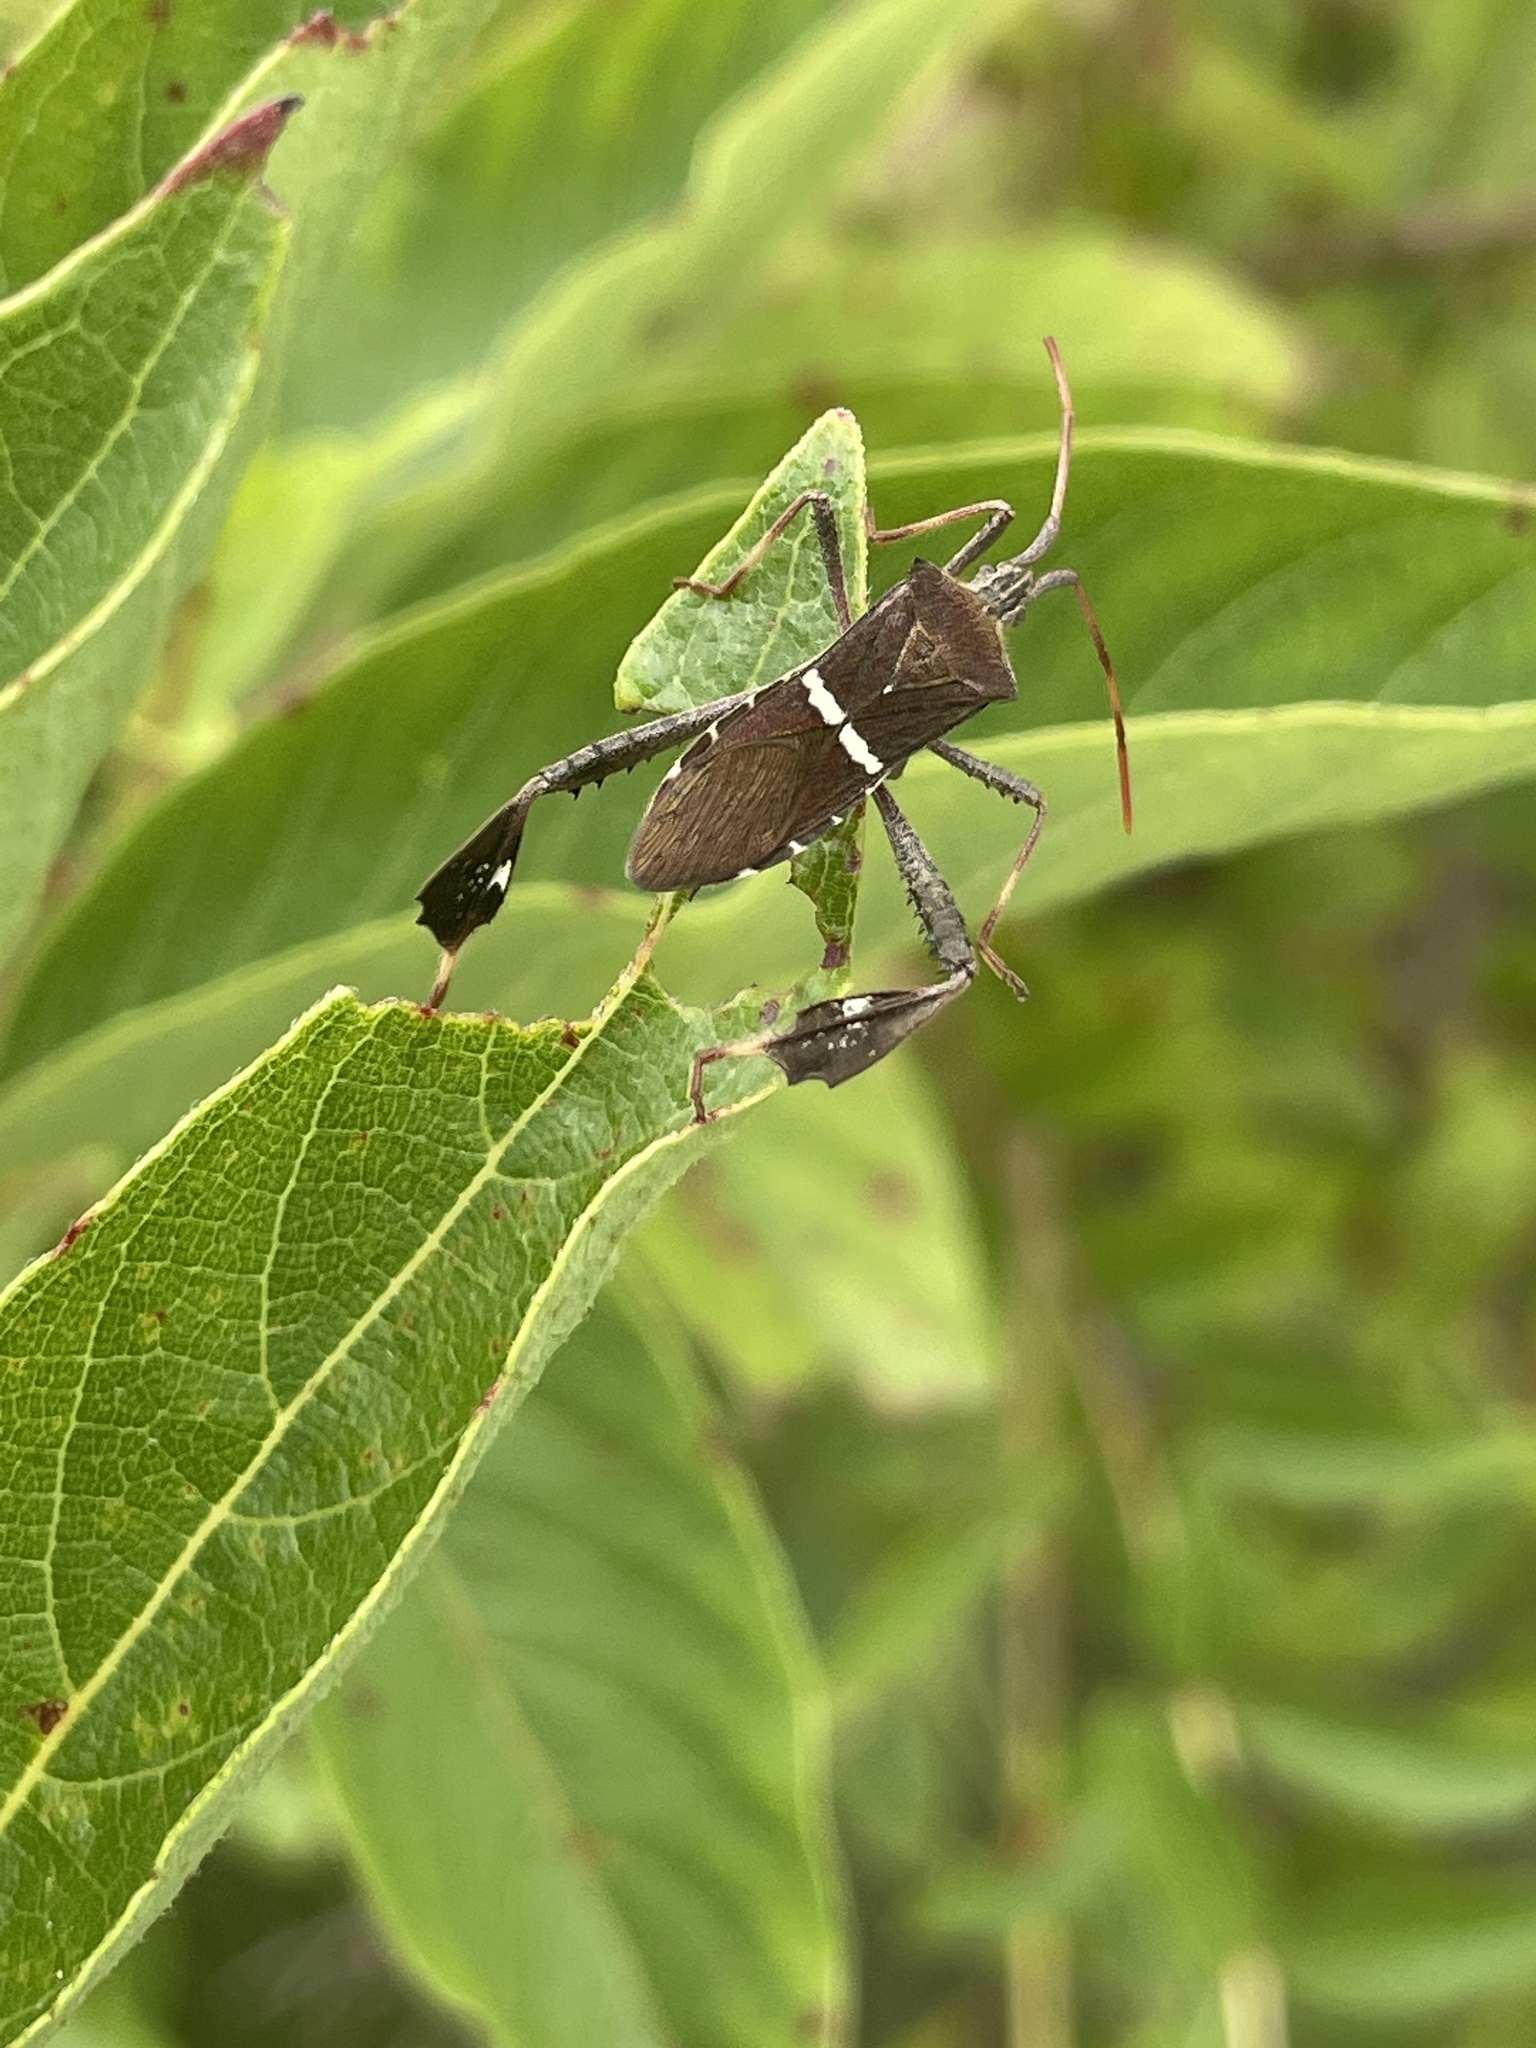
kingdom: Animalia
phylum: Arthropoda
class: Insecta
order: Hemiptera
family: Coreidae
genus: Leptoglossus
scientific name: Leptoglossus phyllopus
